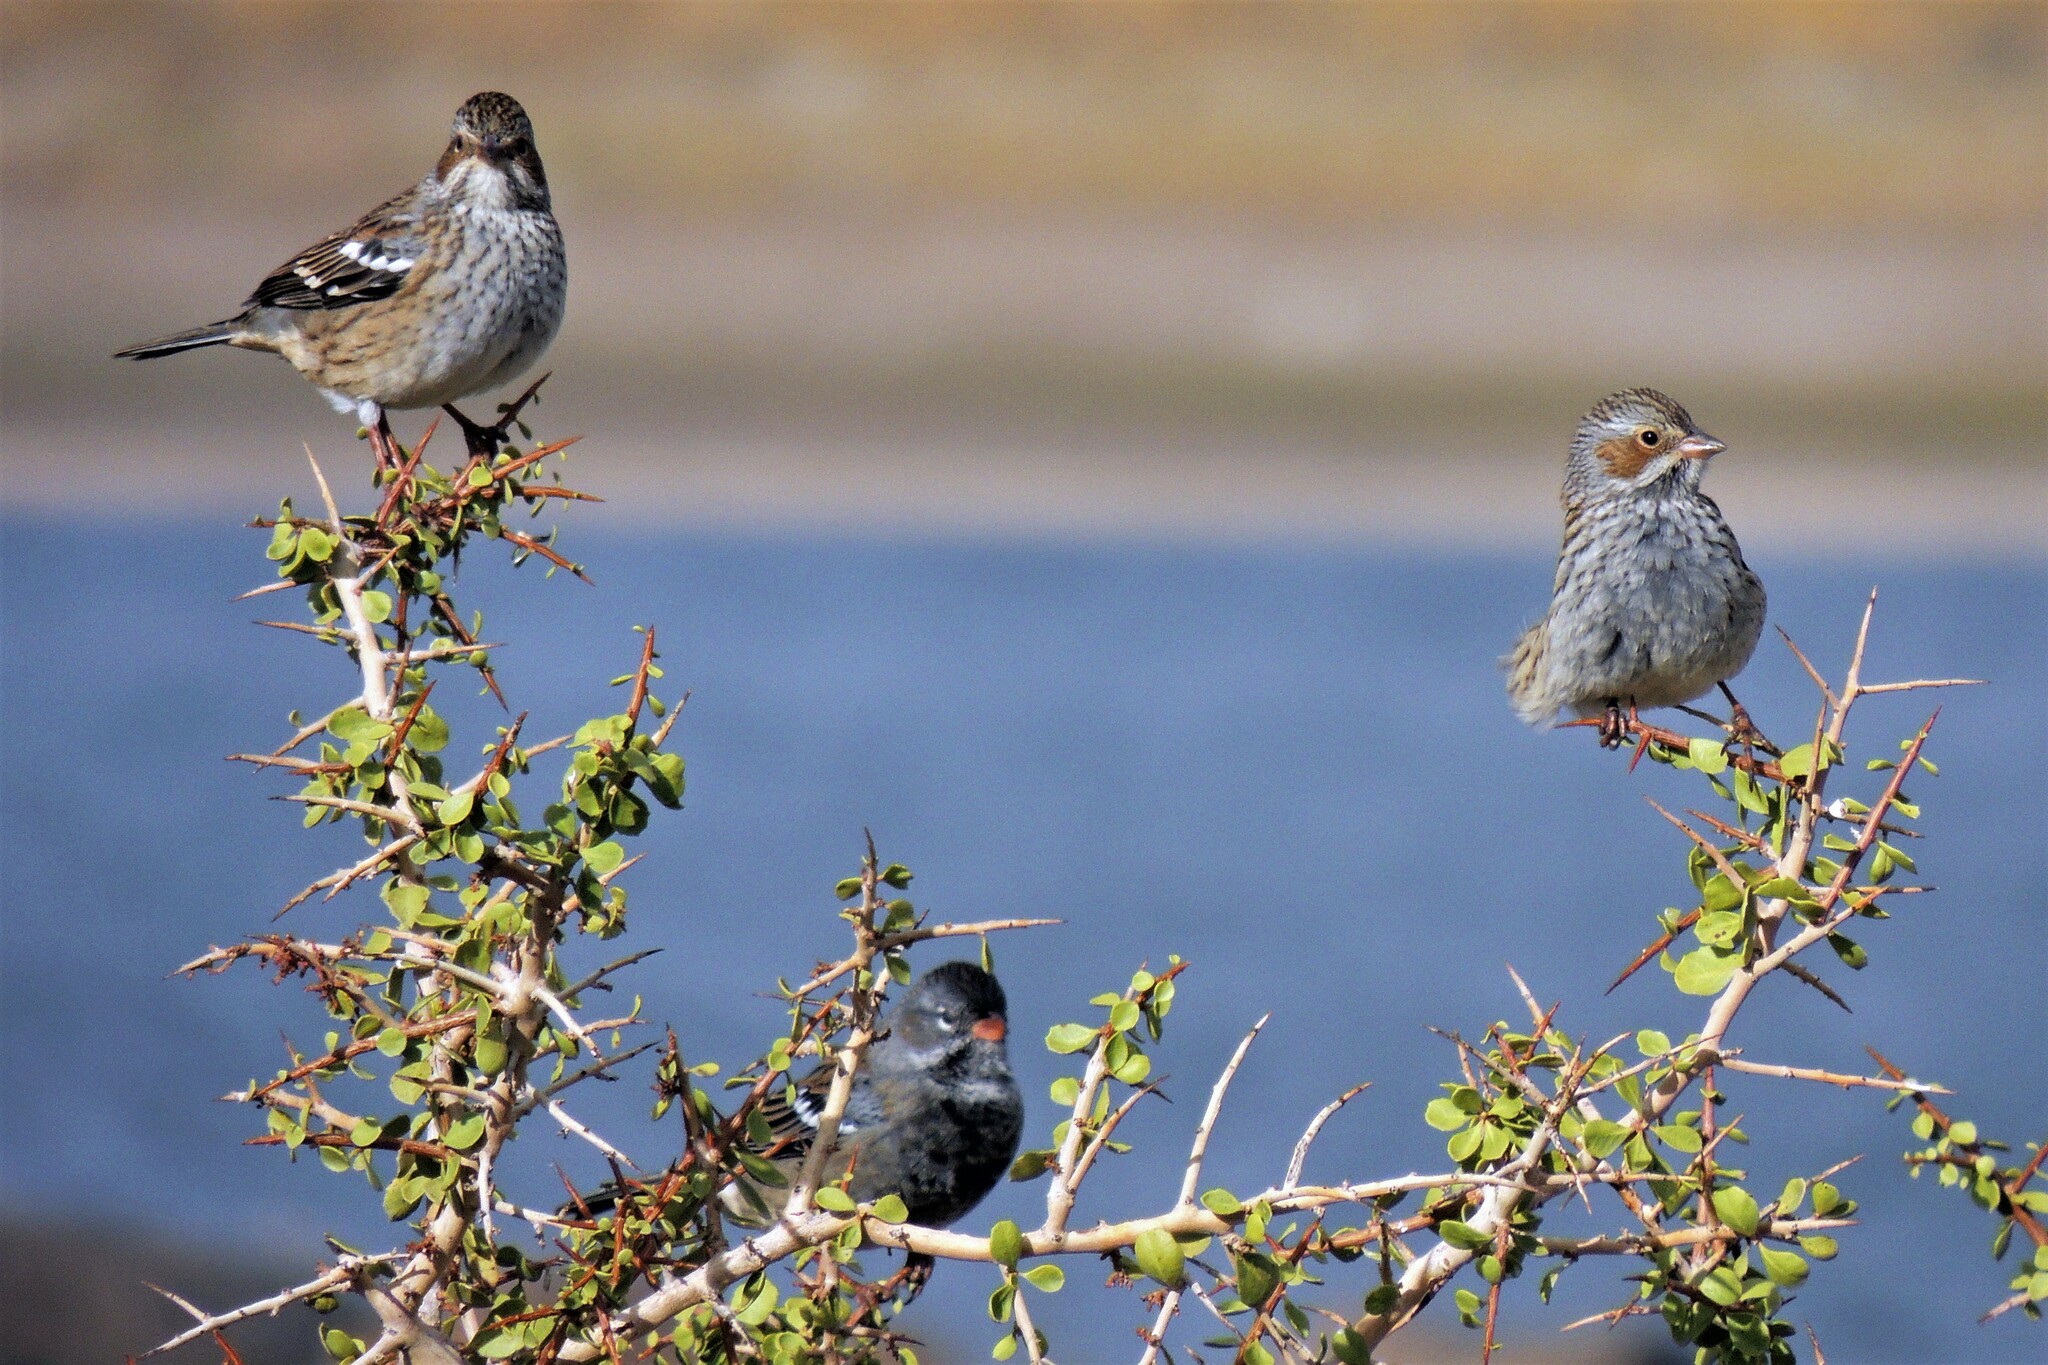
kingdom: Animalia
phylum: Chordata
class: Aves
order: Passeriformes
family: Thraupidae
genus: Rhopospina
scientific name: Rhopospina fruticeti
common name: Mourning sierra finch
